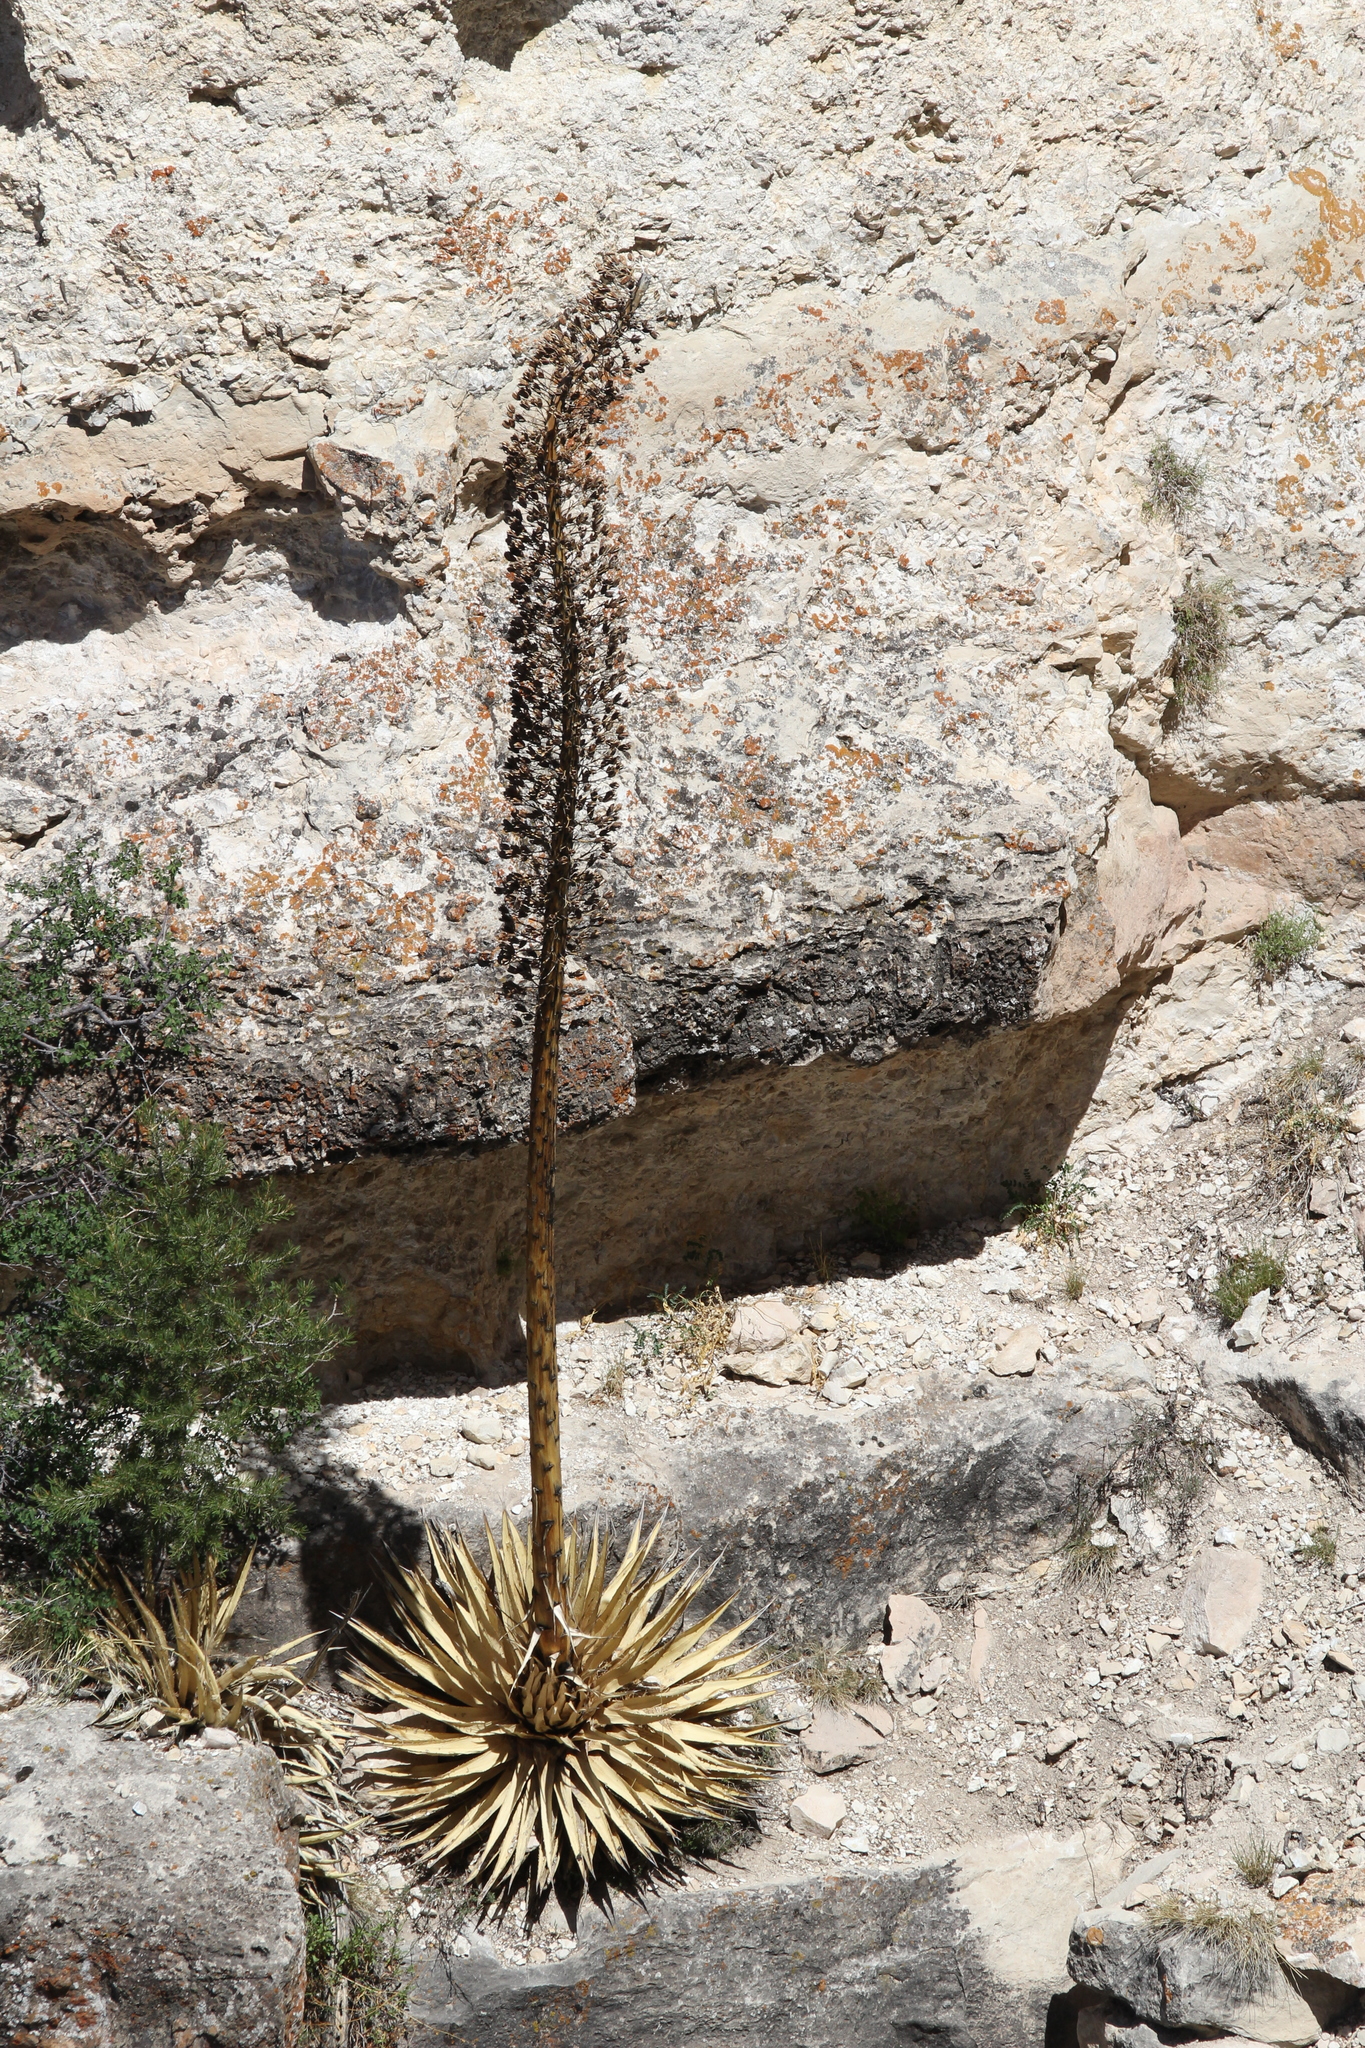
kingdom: Plantae
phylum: Tracheophyta
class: Liliopsida
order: Asparagales
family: Asparagaceae
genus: Agave
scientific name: Agave utahensis
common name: Utah agave
